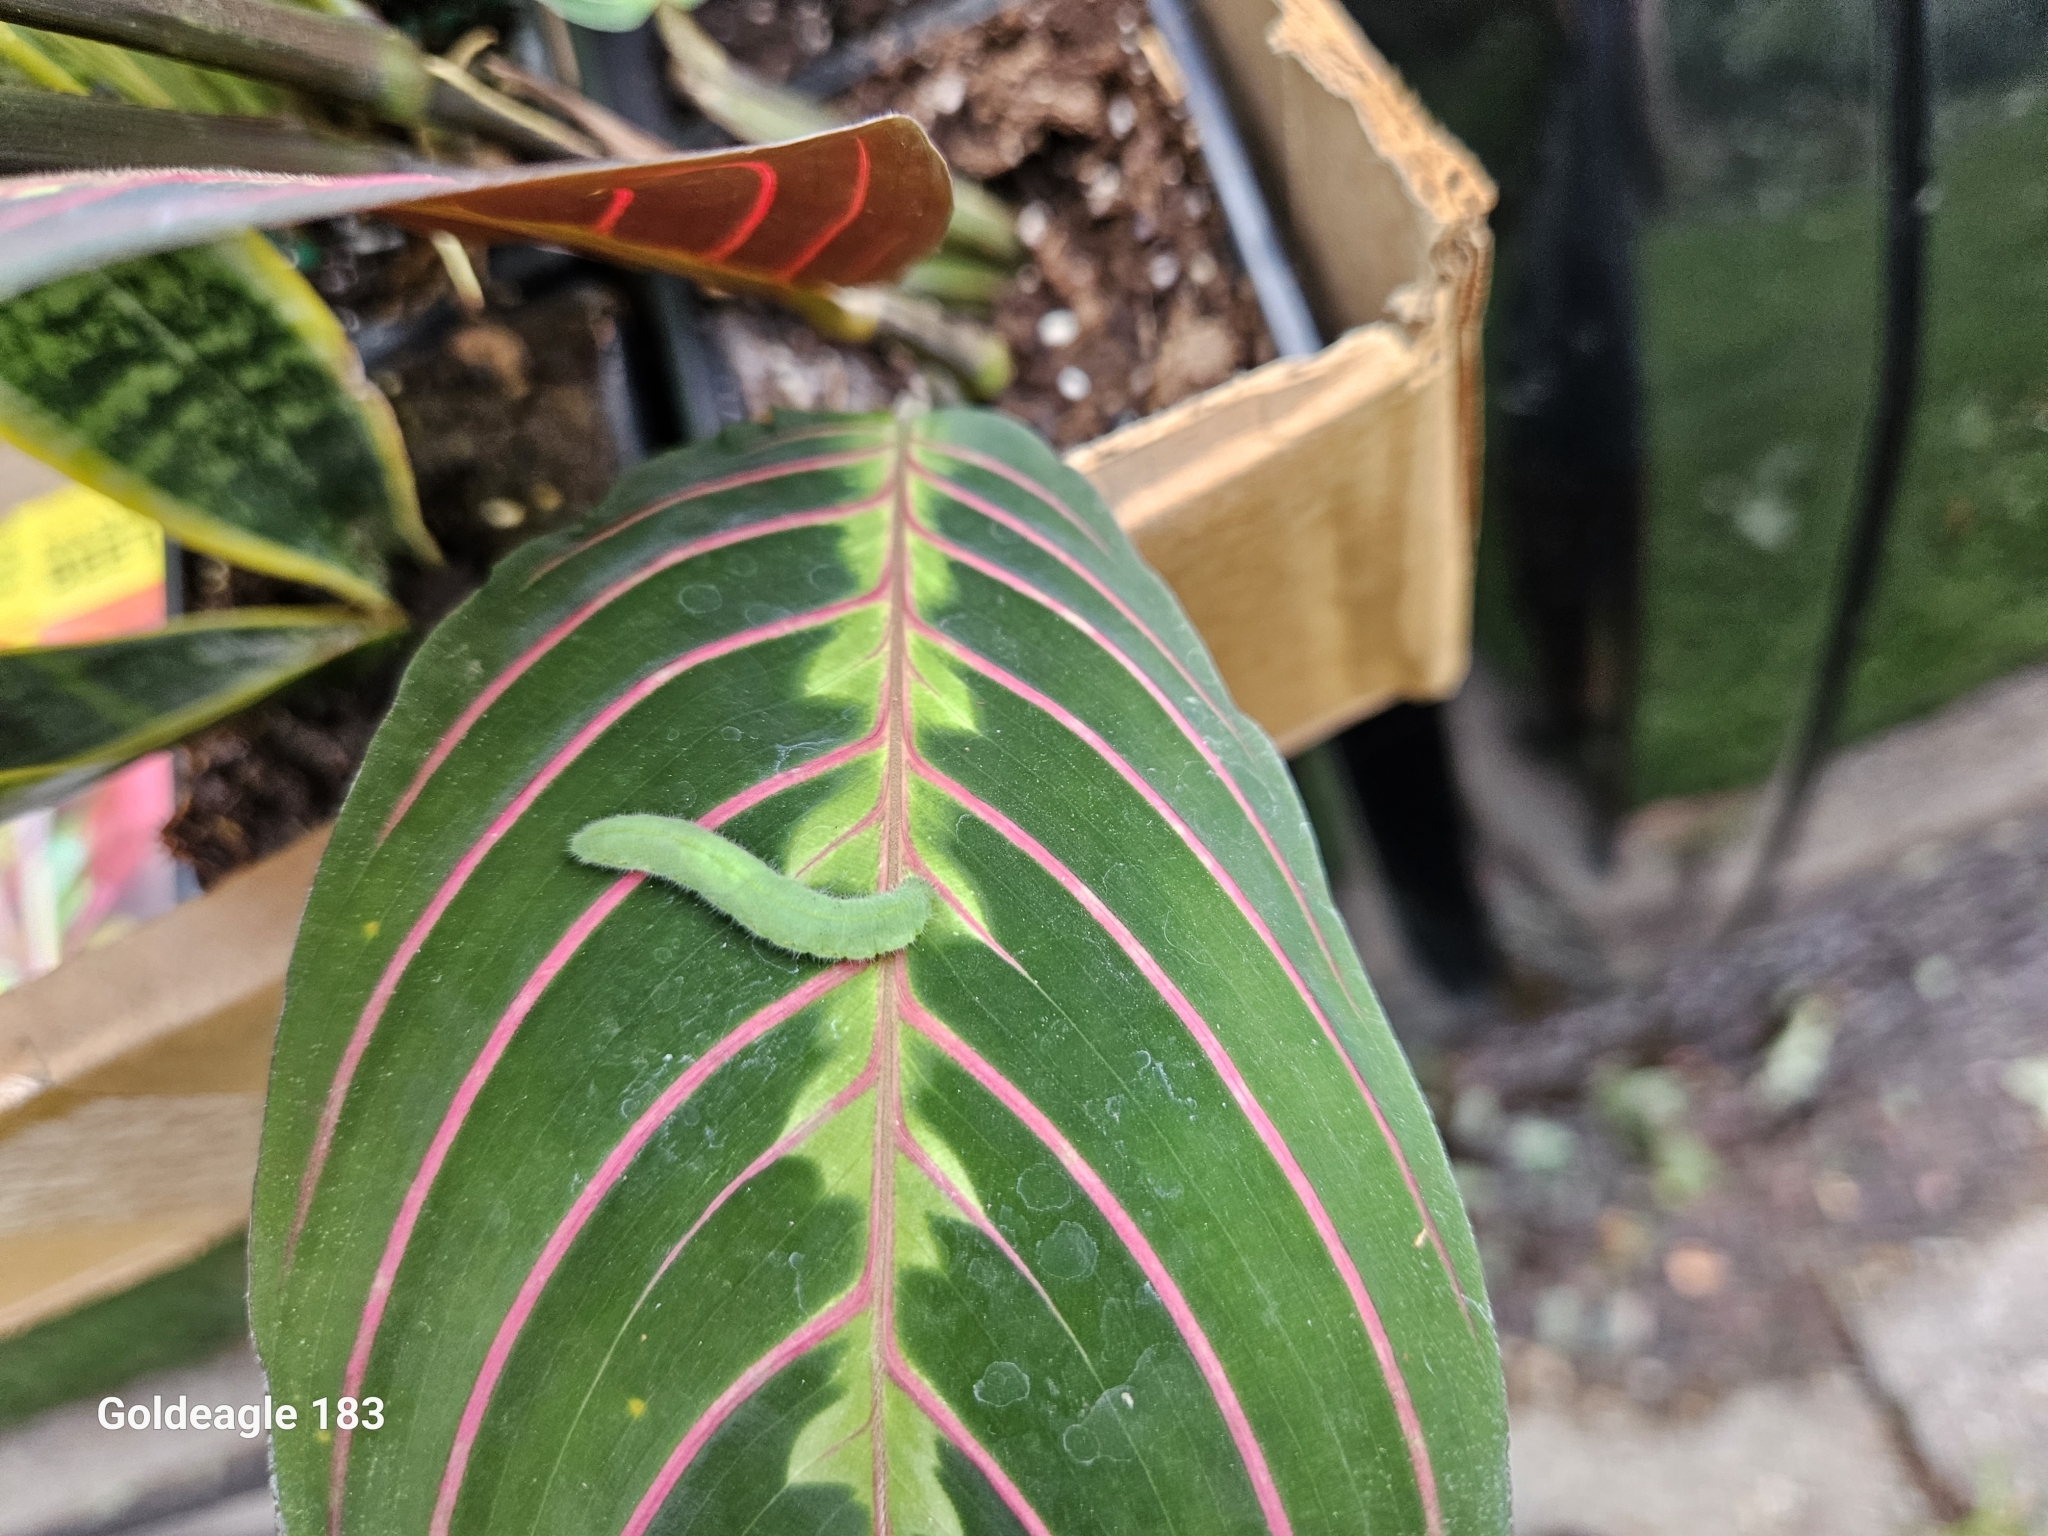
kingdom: Animalia
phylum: Arthropoda
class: Insecta
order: Lepidoptera
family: Pieridae
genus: Pieris
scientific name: Pieris rapae
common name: Small white
